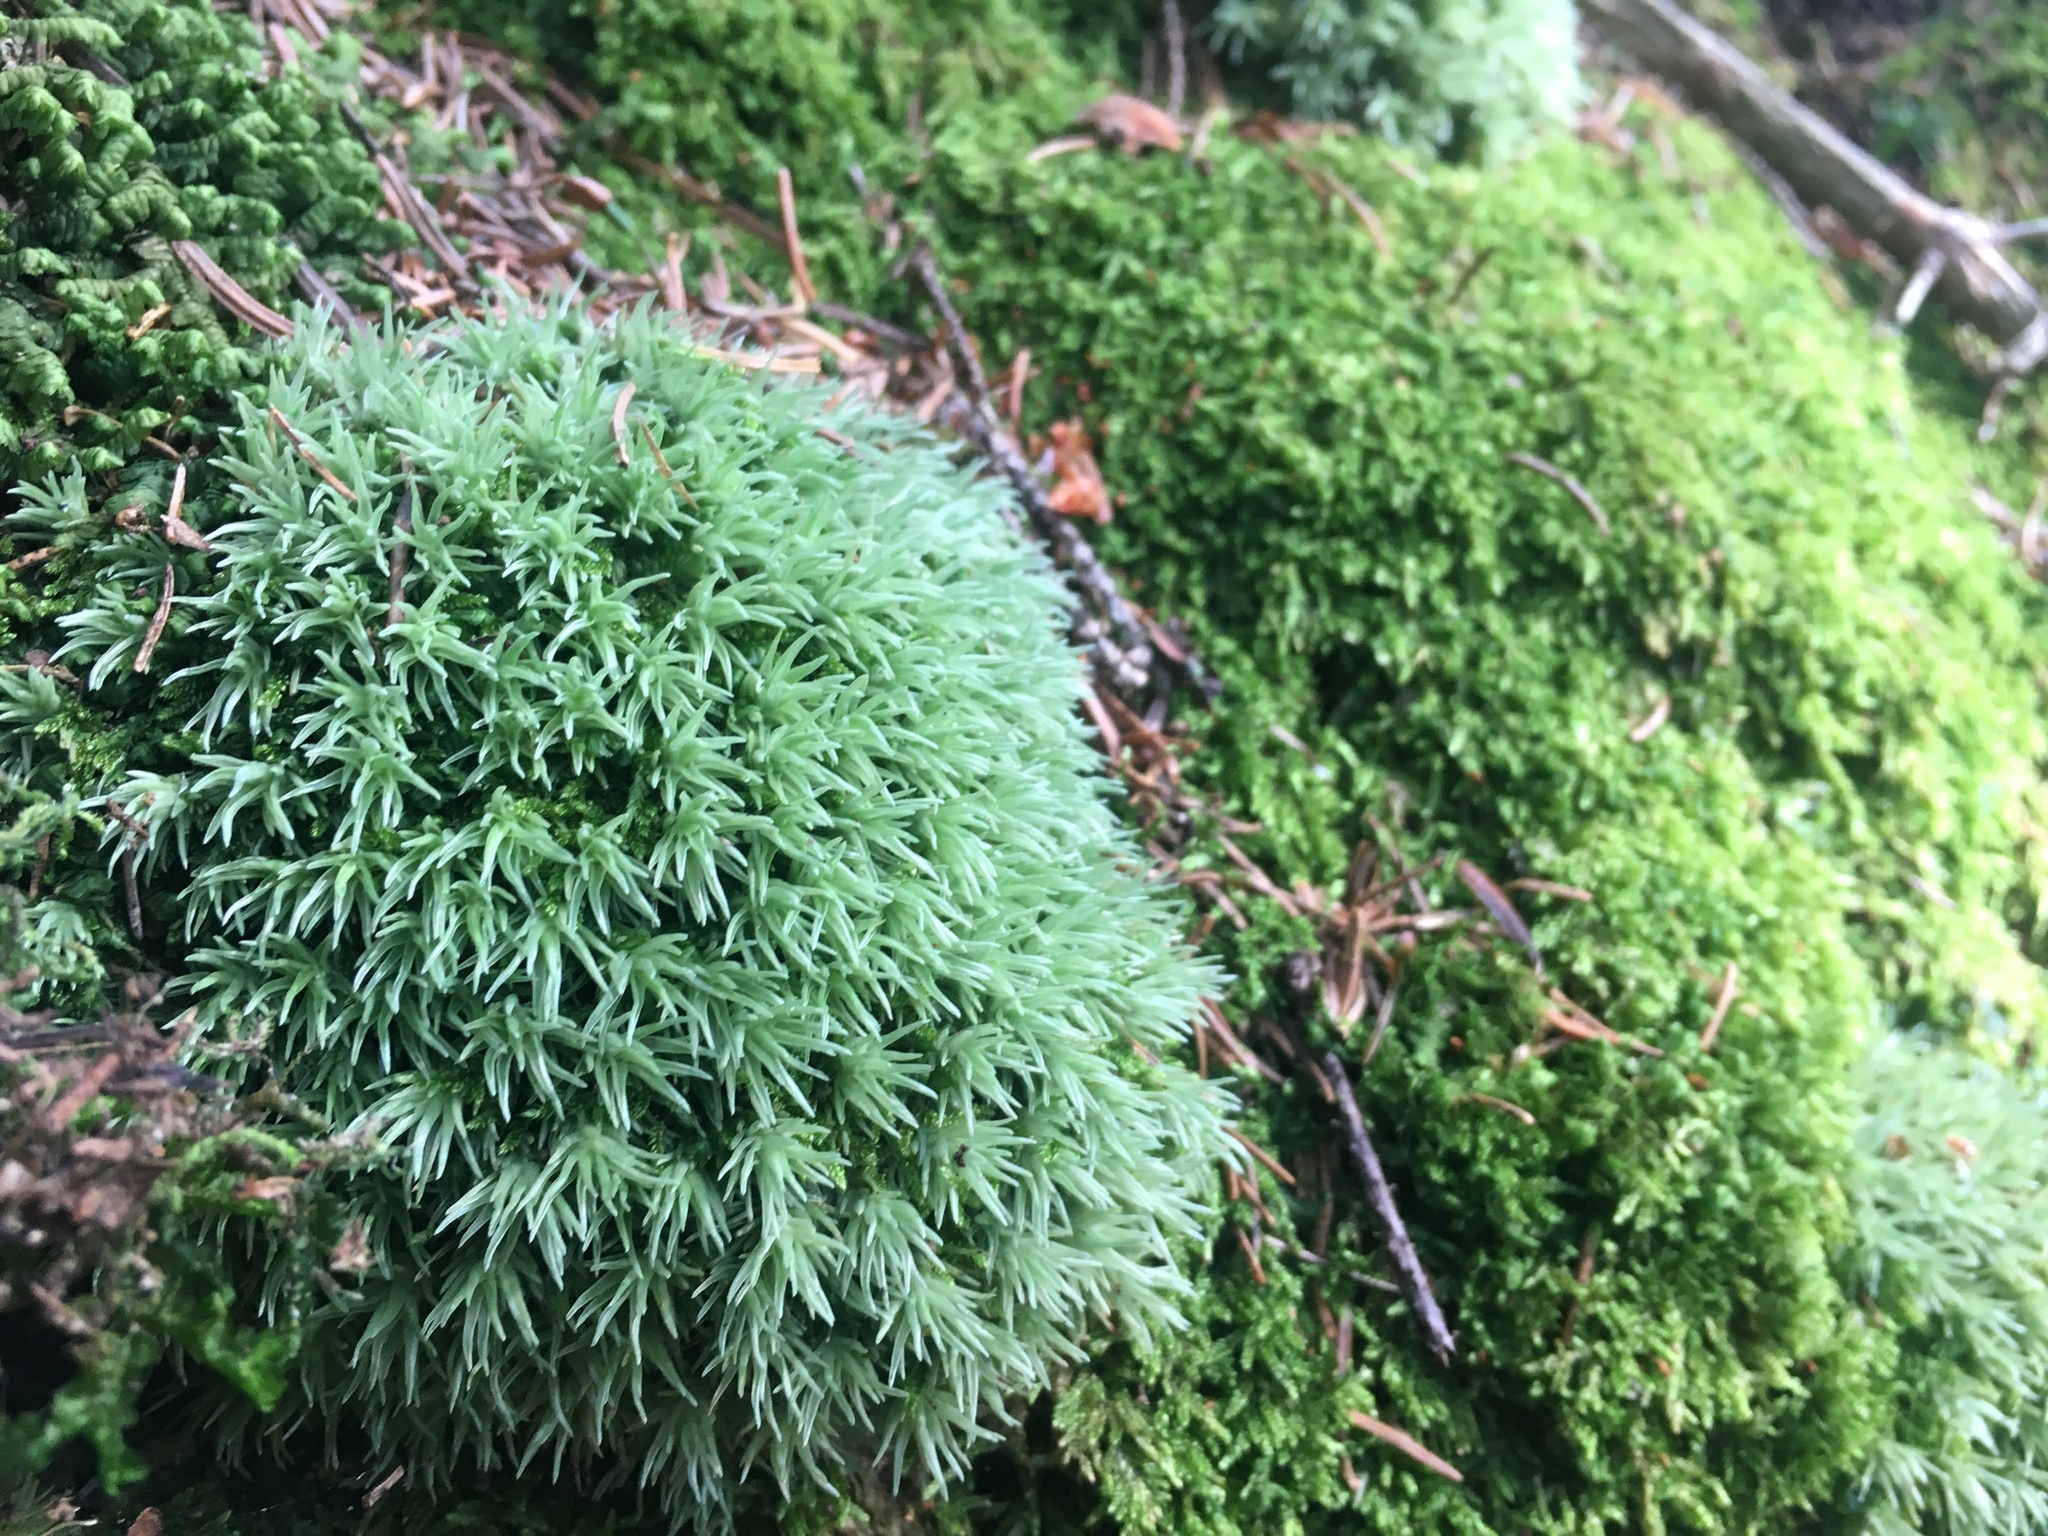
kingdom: Plantae
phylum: Bryophyta
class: Bryopsida
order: Dicranales
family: Leucobryaceae
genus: Leucobryum
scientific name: Leucobryum glaucum
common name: Large white-moss
